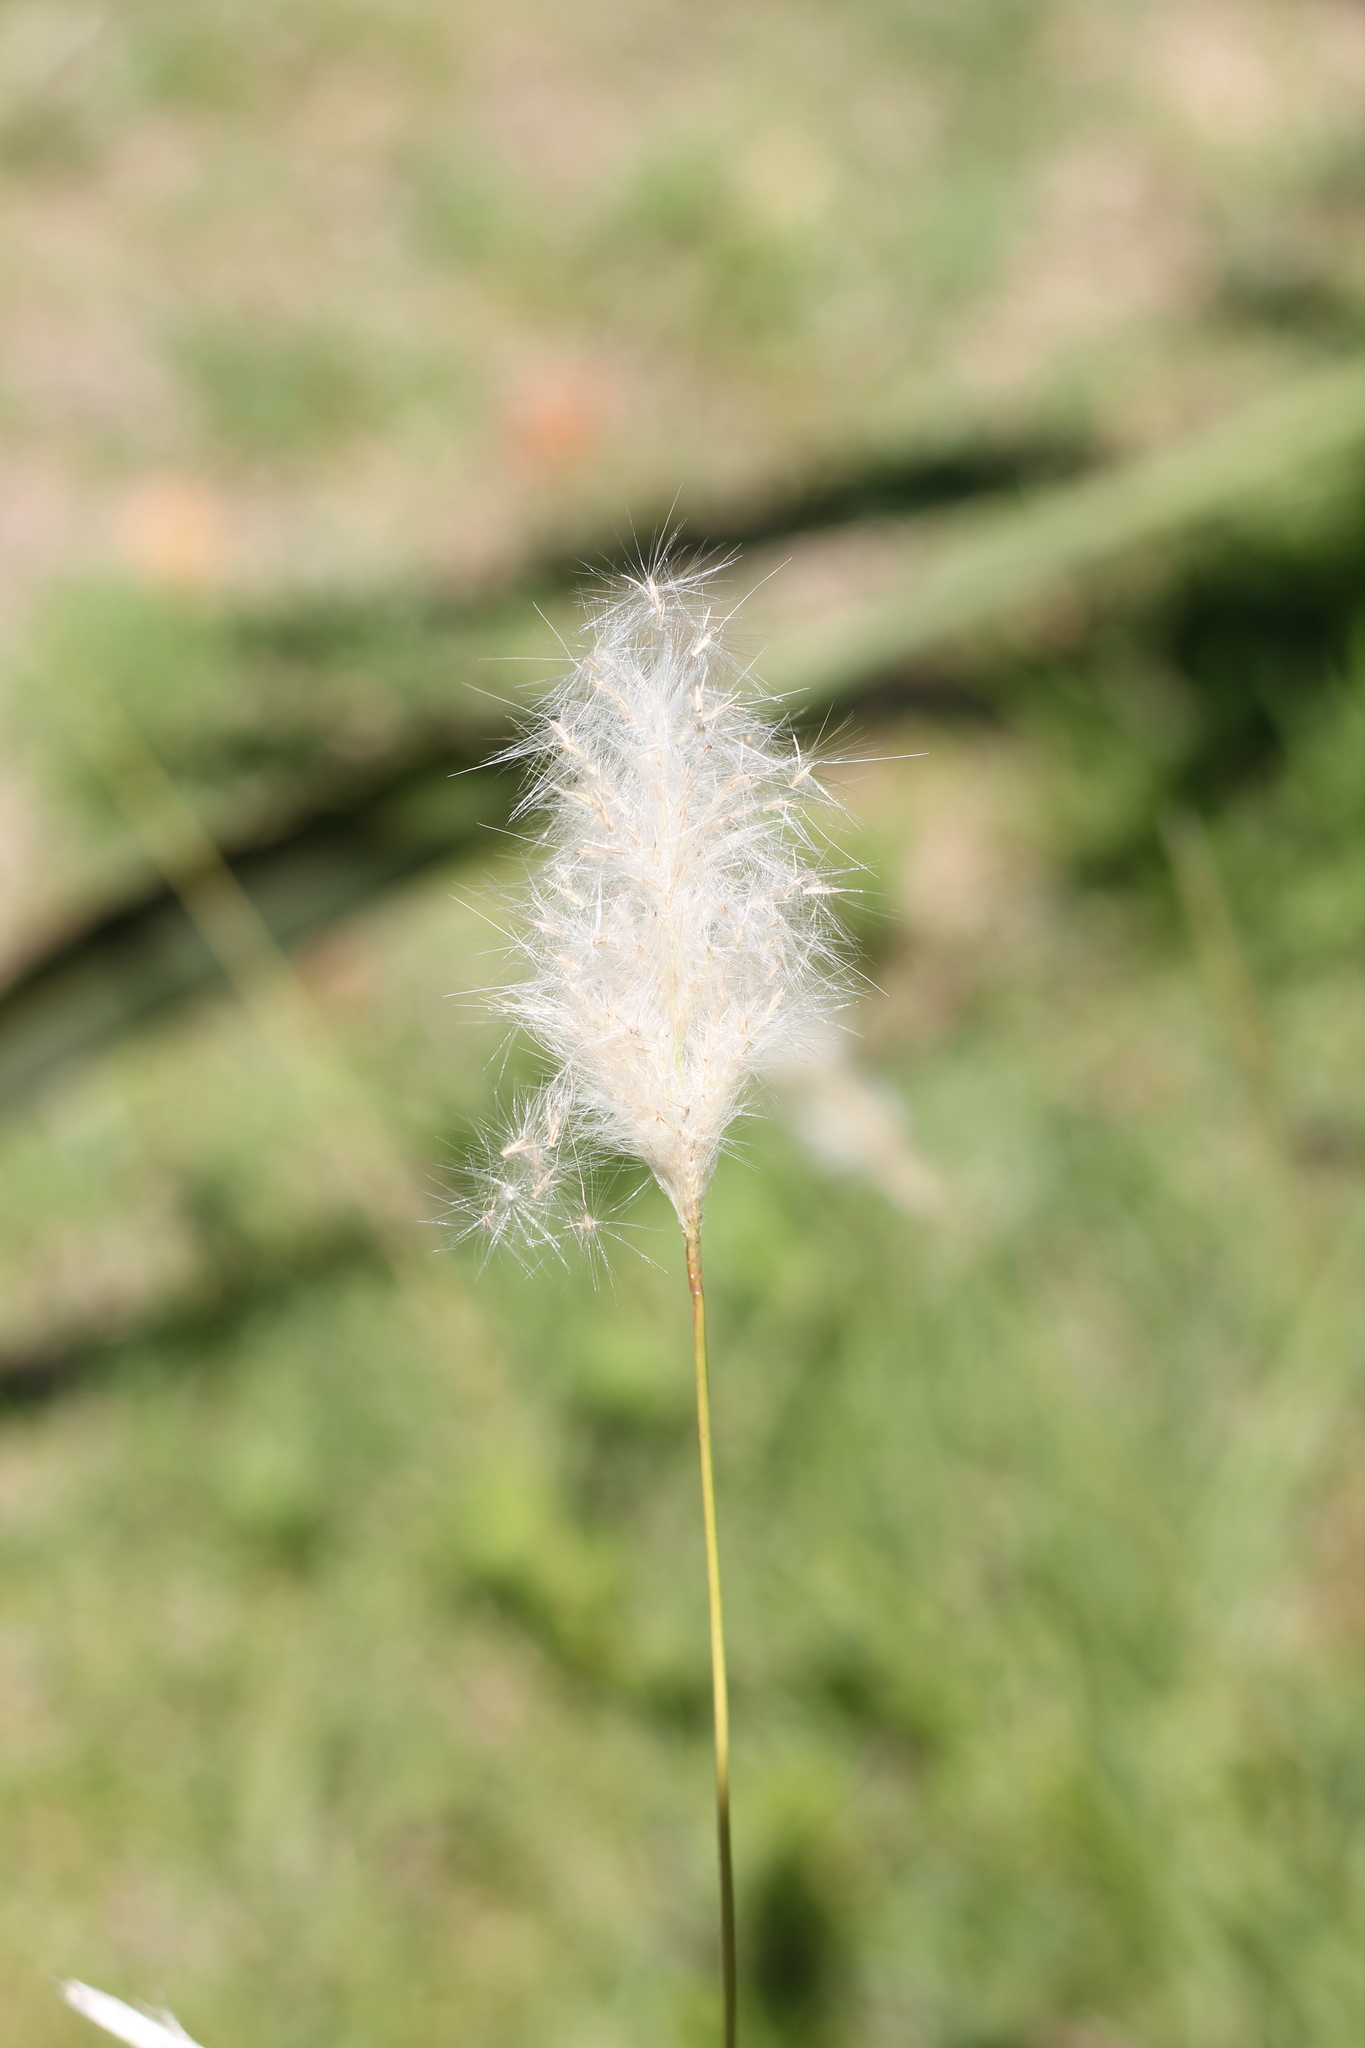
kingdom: Plantae
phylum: Tracheophyta
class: Liliopsida
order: Poales
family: Poaceae
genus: Bothriochloa
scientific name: Bothriochloa laguroides
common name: Silver bluestem
